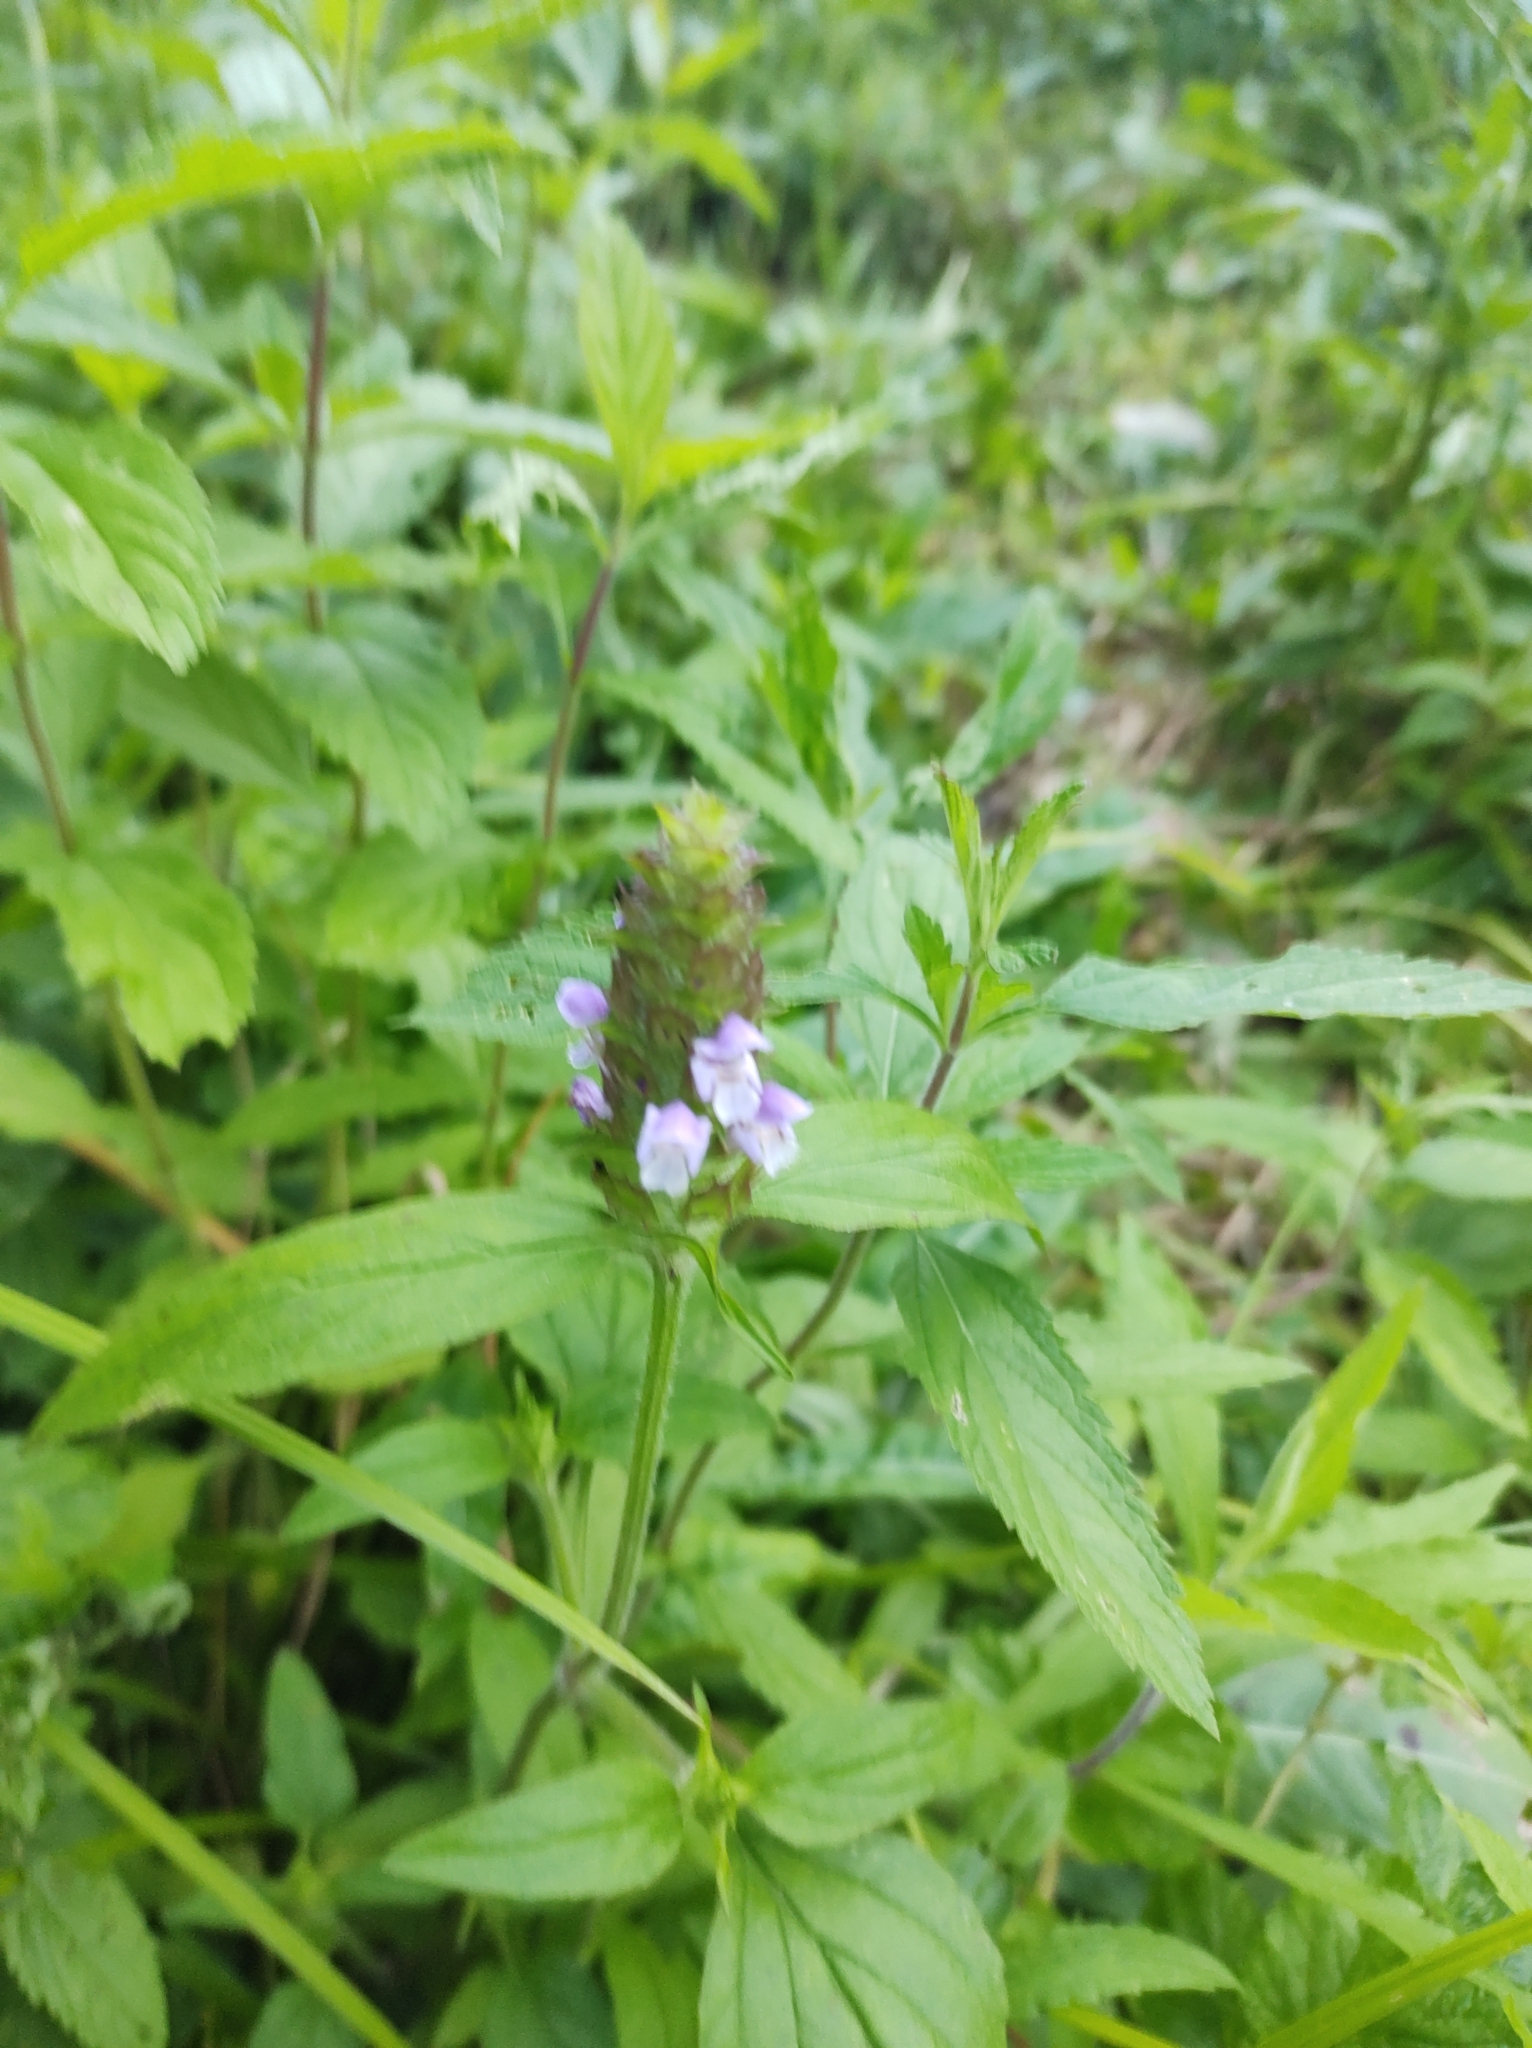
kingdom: Plantae
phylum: Tracheophyta
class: Magnoliopsida
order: Lamiales
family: Lamiaceae
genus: Prunella
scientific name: Prunella vulgaris
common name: Heal-all
